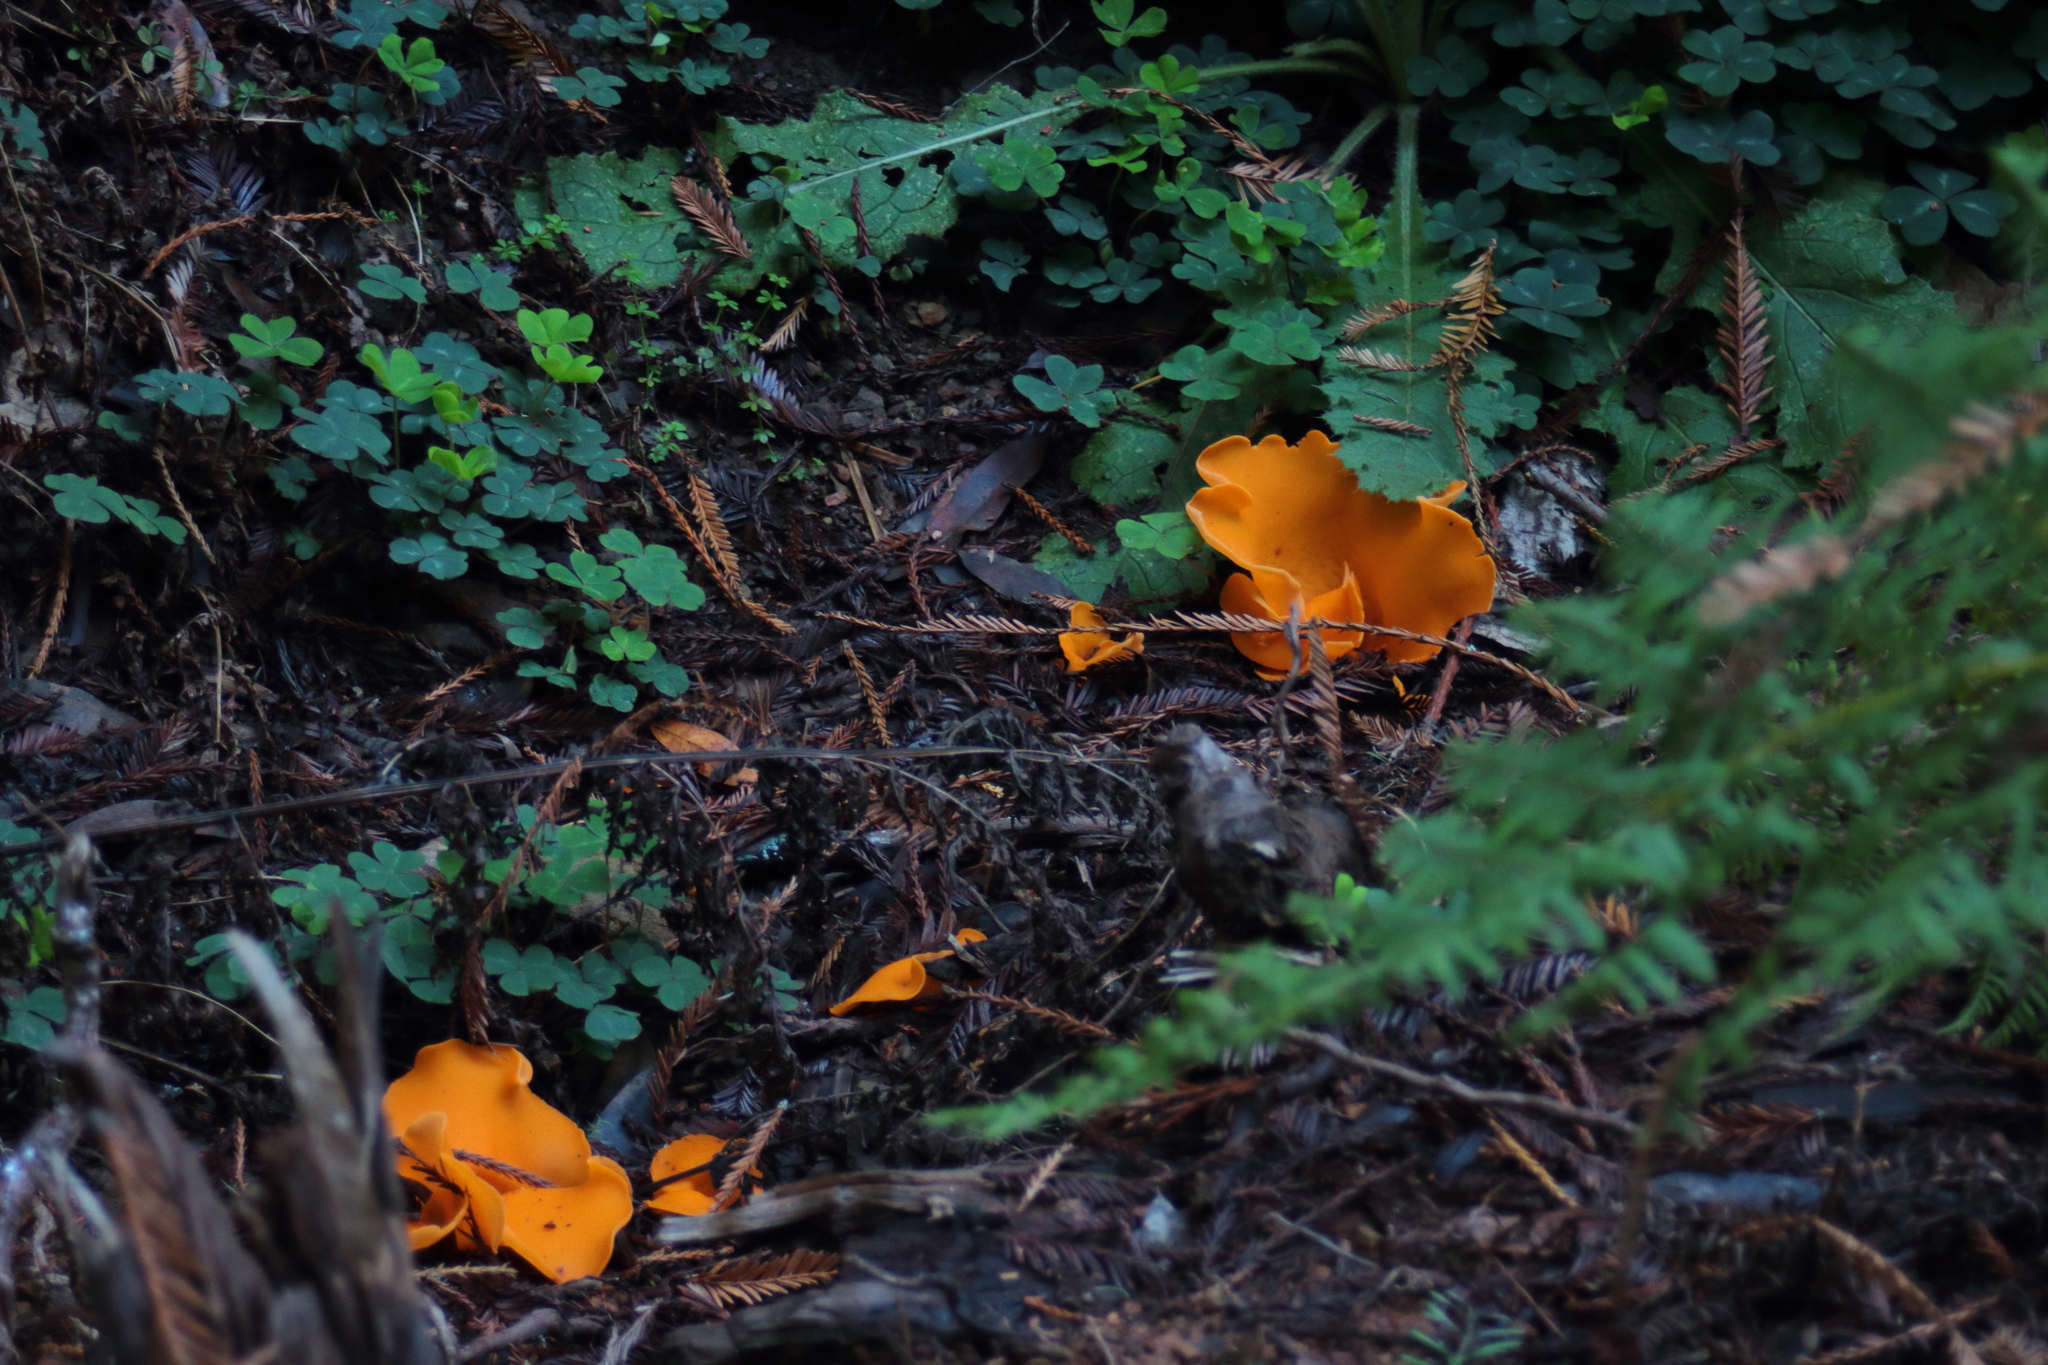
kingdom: Fungi
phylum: Ascomycota
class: Pezizomycetes
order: Pezizales
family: Pyronemataceae
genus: Aleuria
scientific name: Aleuria aurantia
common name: Orange peel fungus
